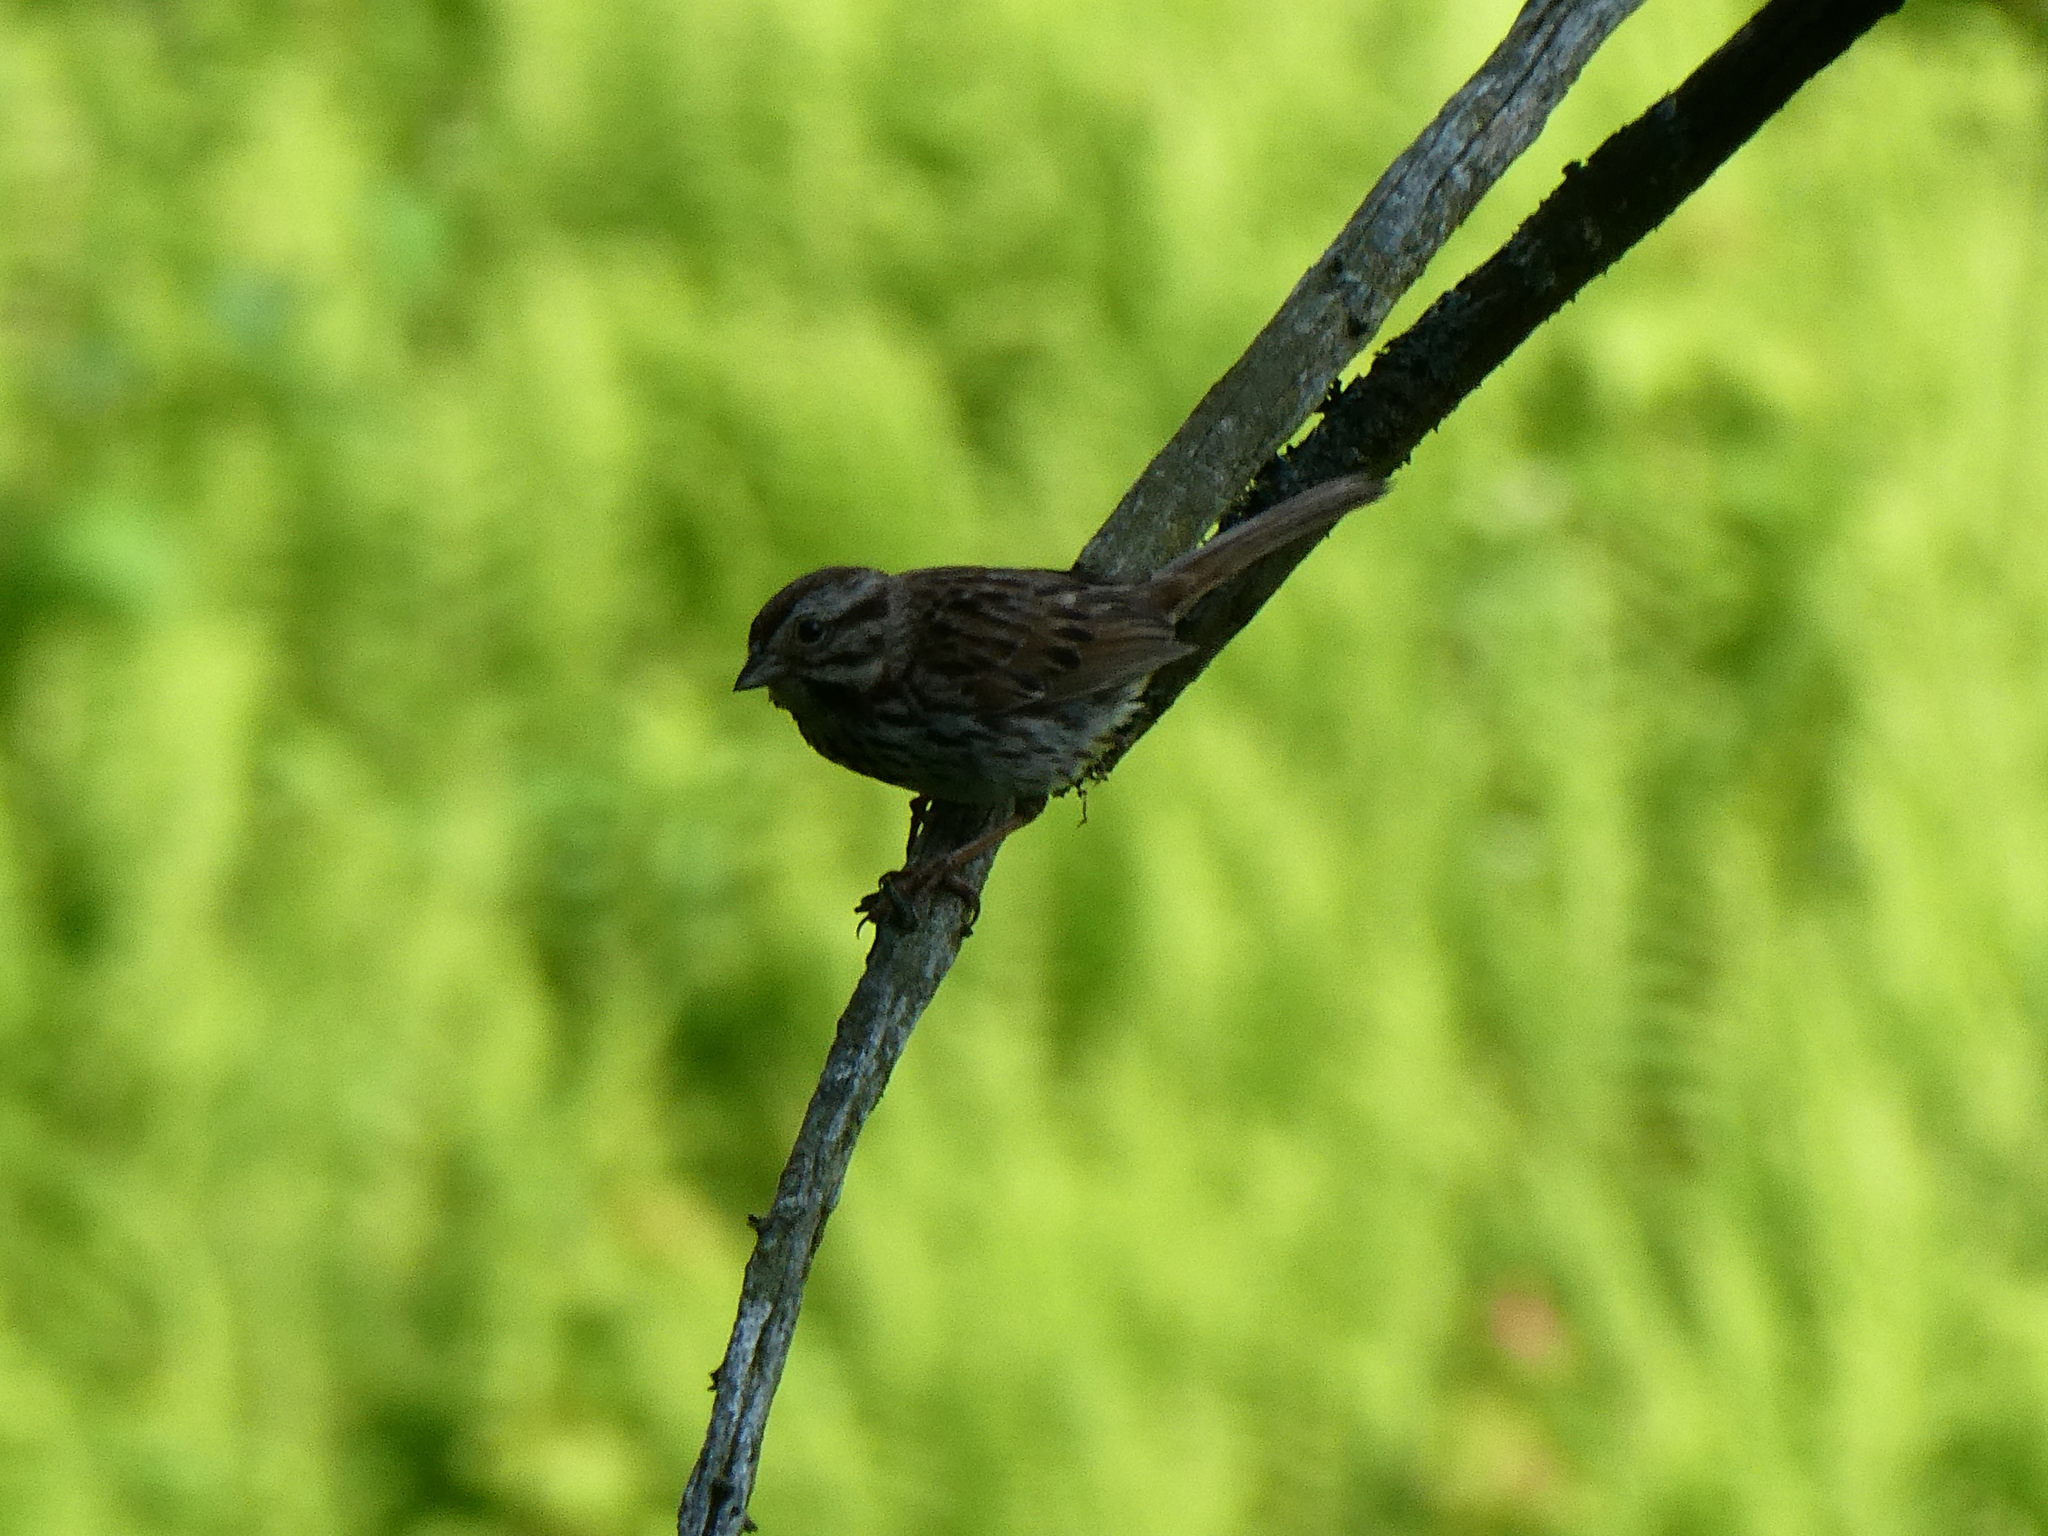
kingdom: Animalia
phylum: Chordata
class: Aves
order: Passeriformes
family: Passerellidae
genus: Melospiza
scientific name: Melospiza melodia
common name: Song sparrow
